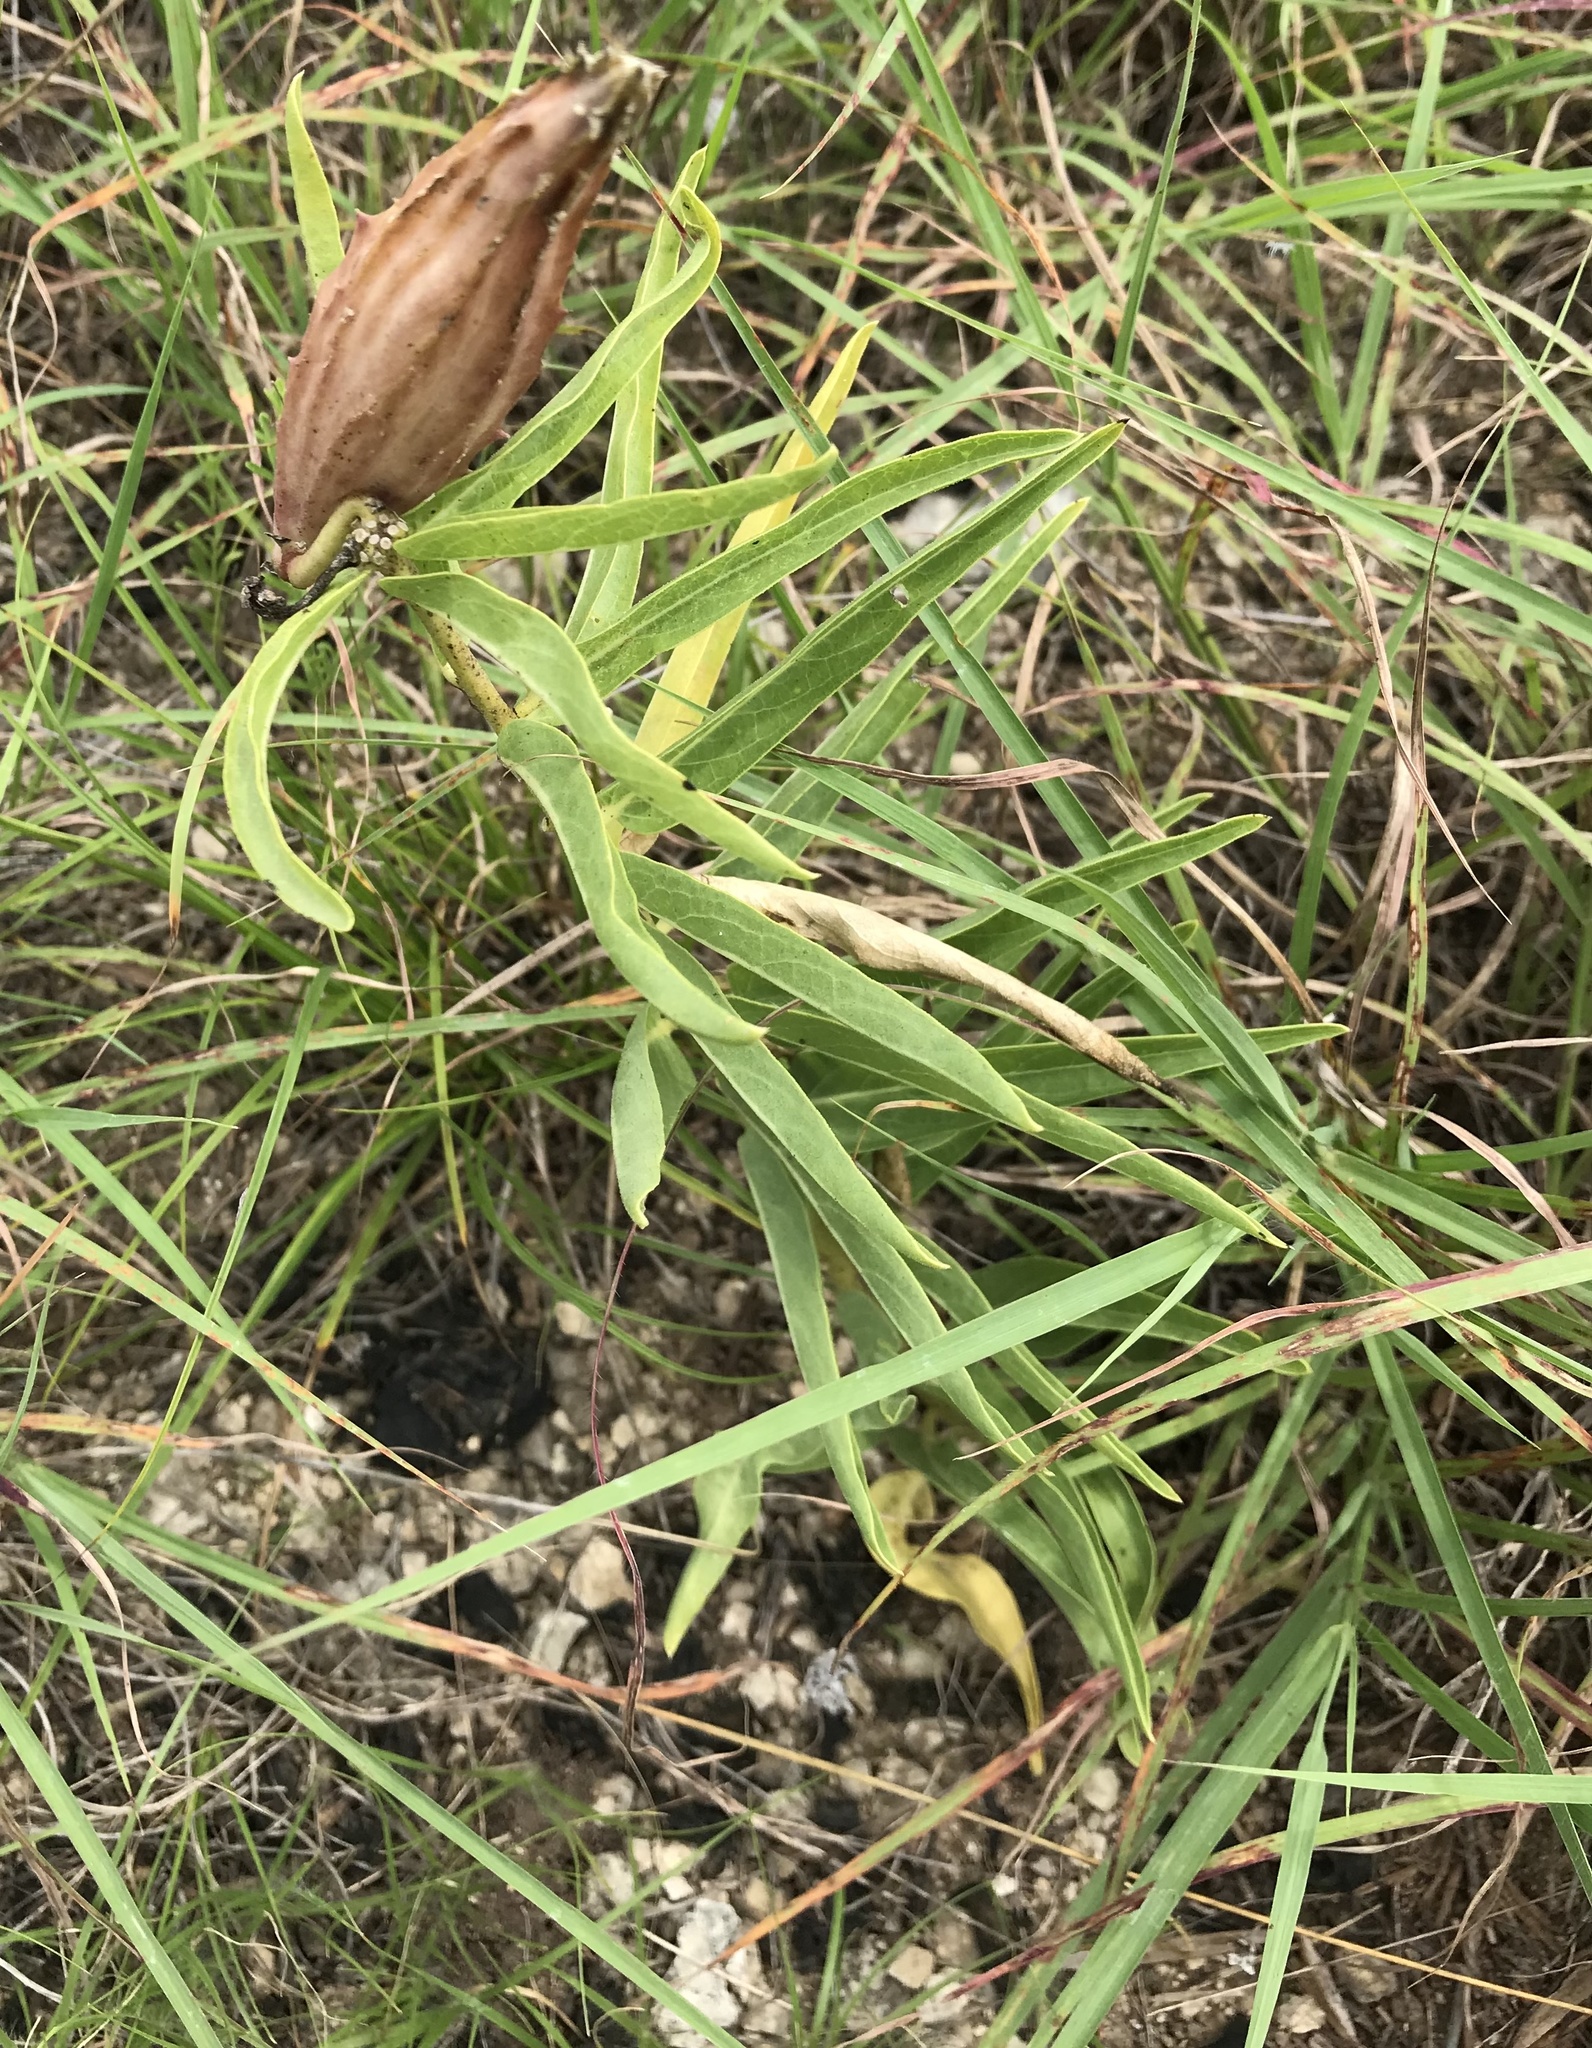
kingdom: Plantae
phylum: Tracheophyta
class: Magnoliopsida
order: Gentianales
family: Apocynaceae
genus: Asclepias
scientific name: Asclepias asperula
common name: Antelope horns
